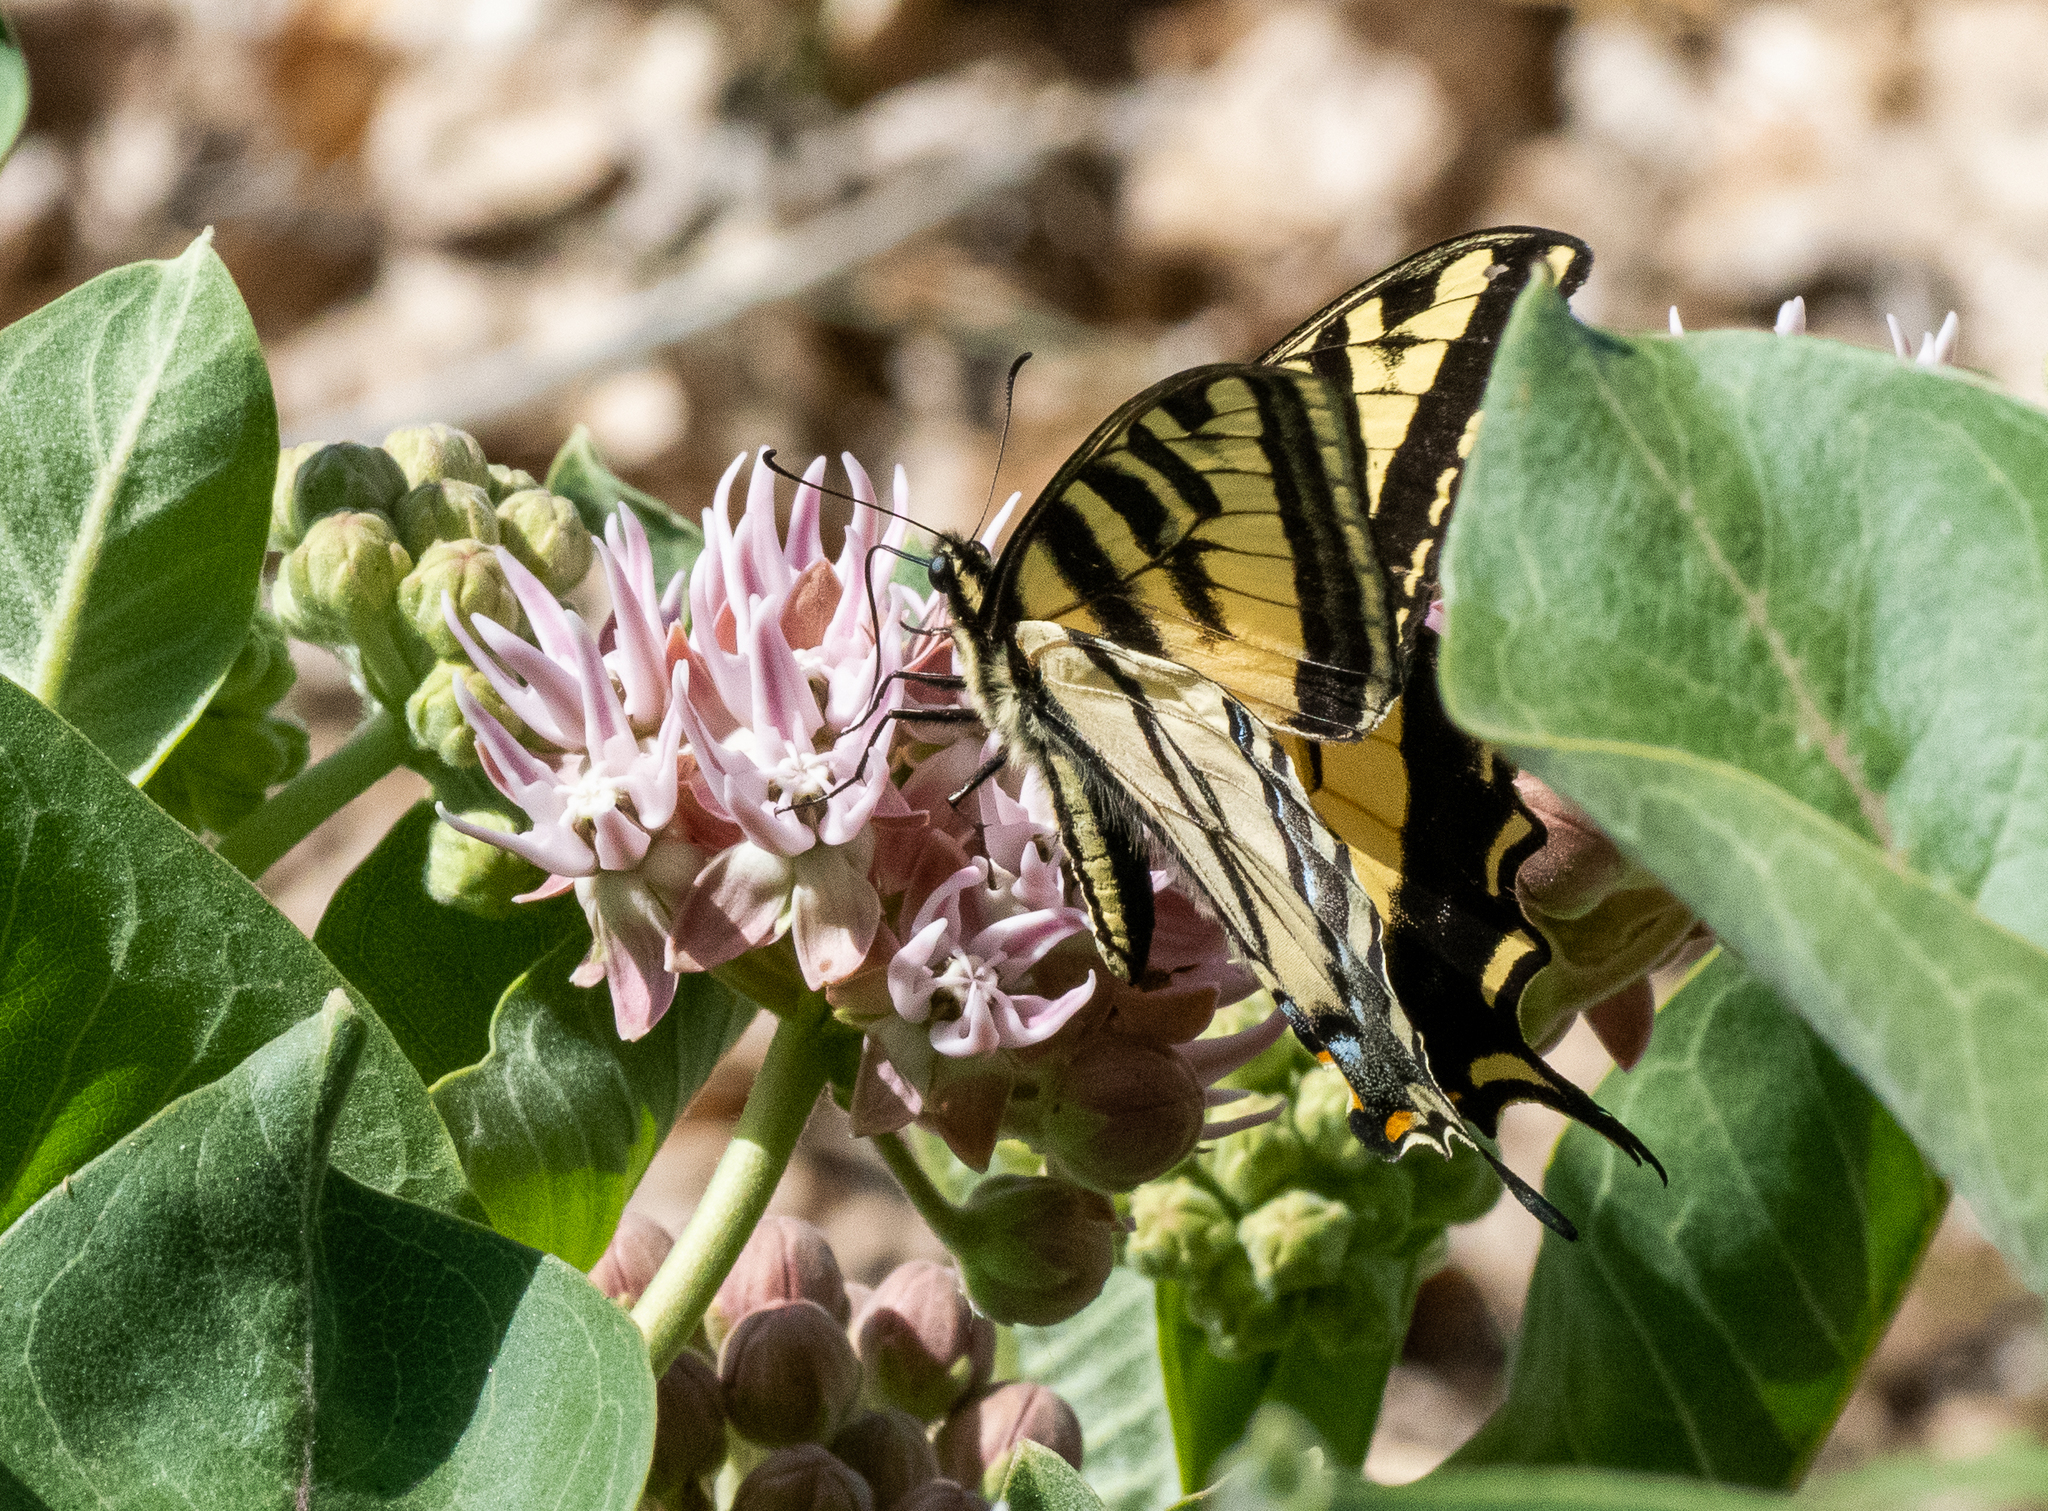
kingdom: Animalia
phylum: Arthropoda
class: Insecta
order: Lepidoptera
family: Papilionidae
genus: Papilio
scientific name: Papilio rutulus
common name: Western tiger swallowtail
